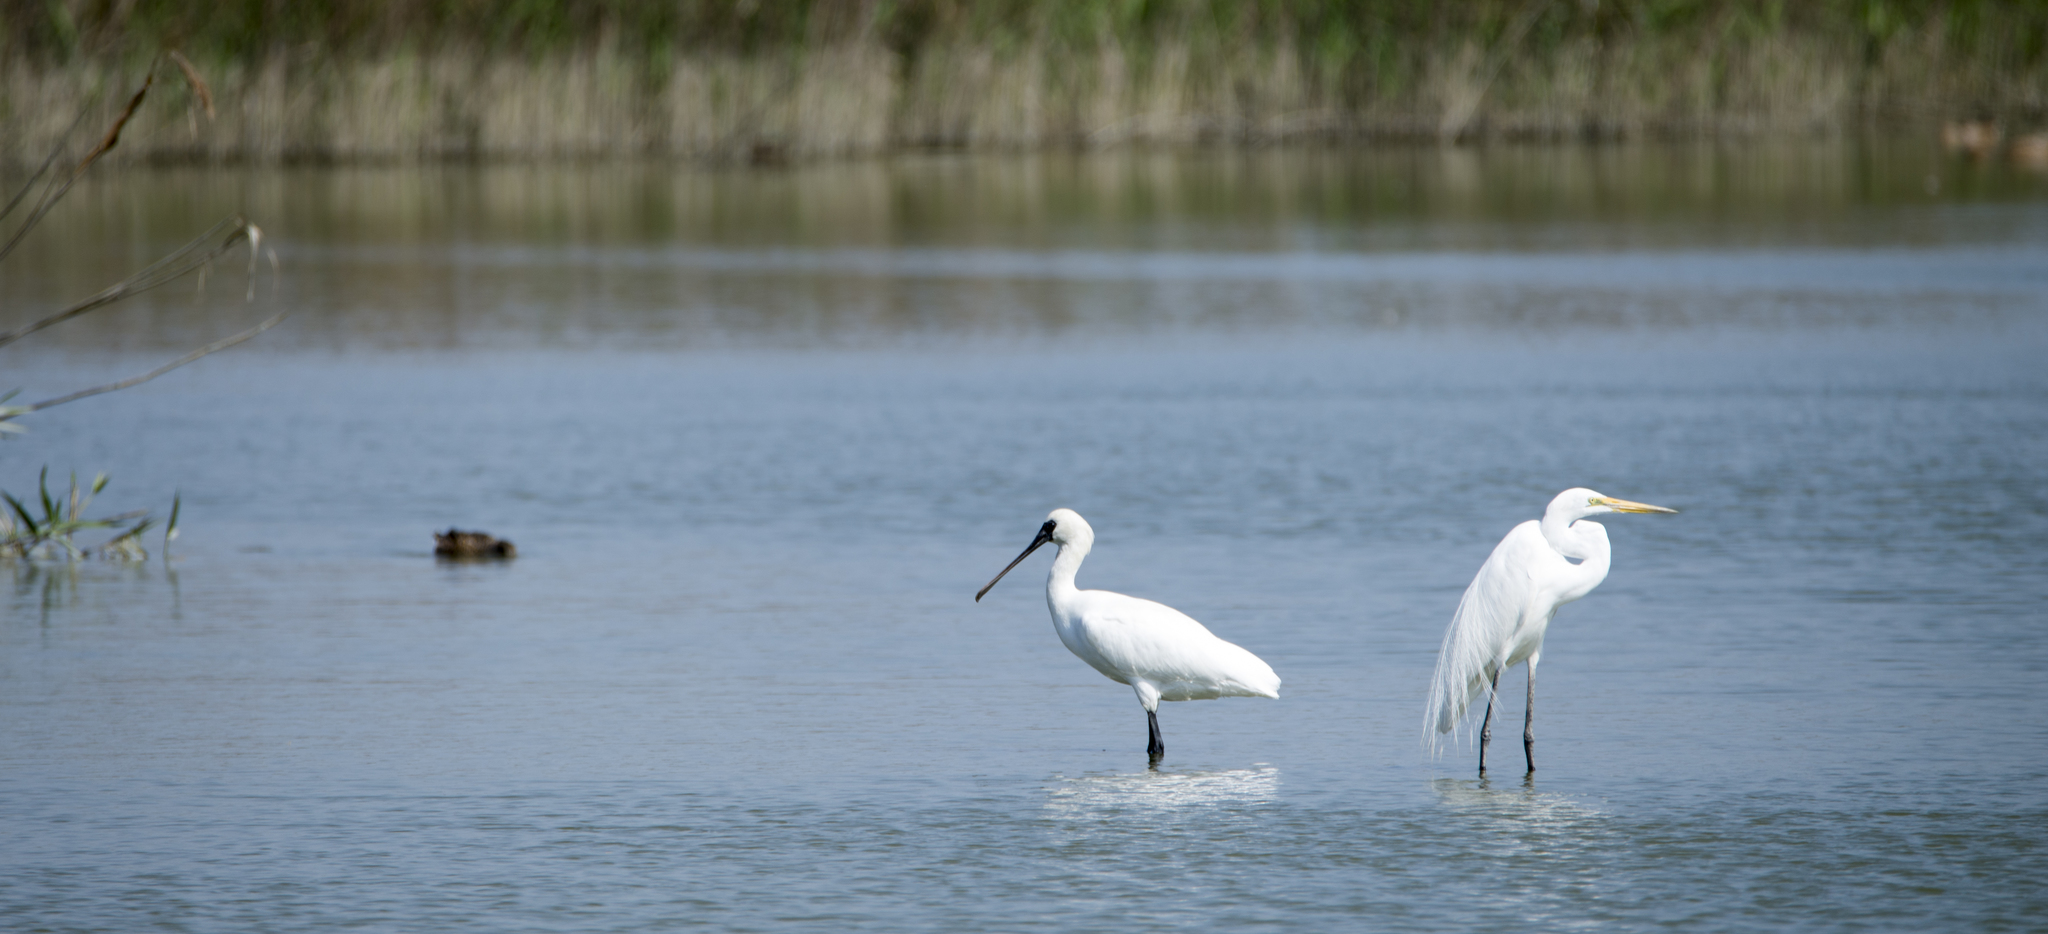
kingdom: Animalia
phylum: Chordata
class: Aves
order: Pelecaniformes
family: Threskiornithidae
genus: Platalea
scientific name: Platalea minor
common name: Black-faced spoonbill
